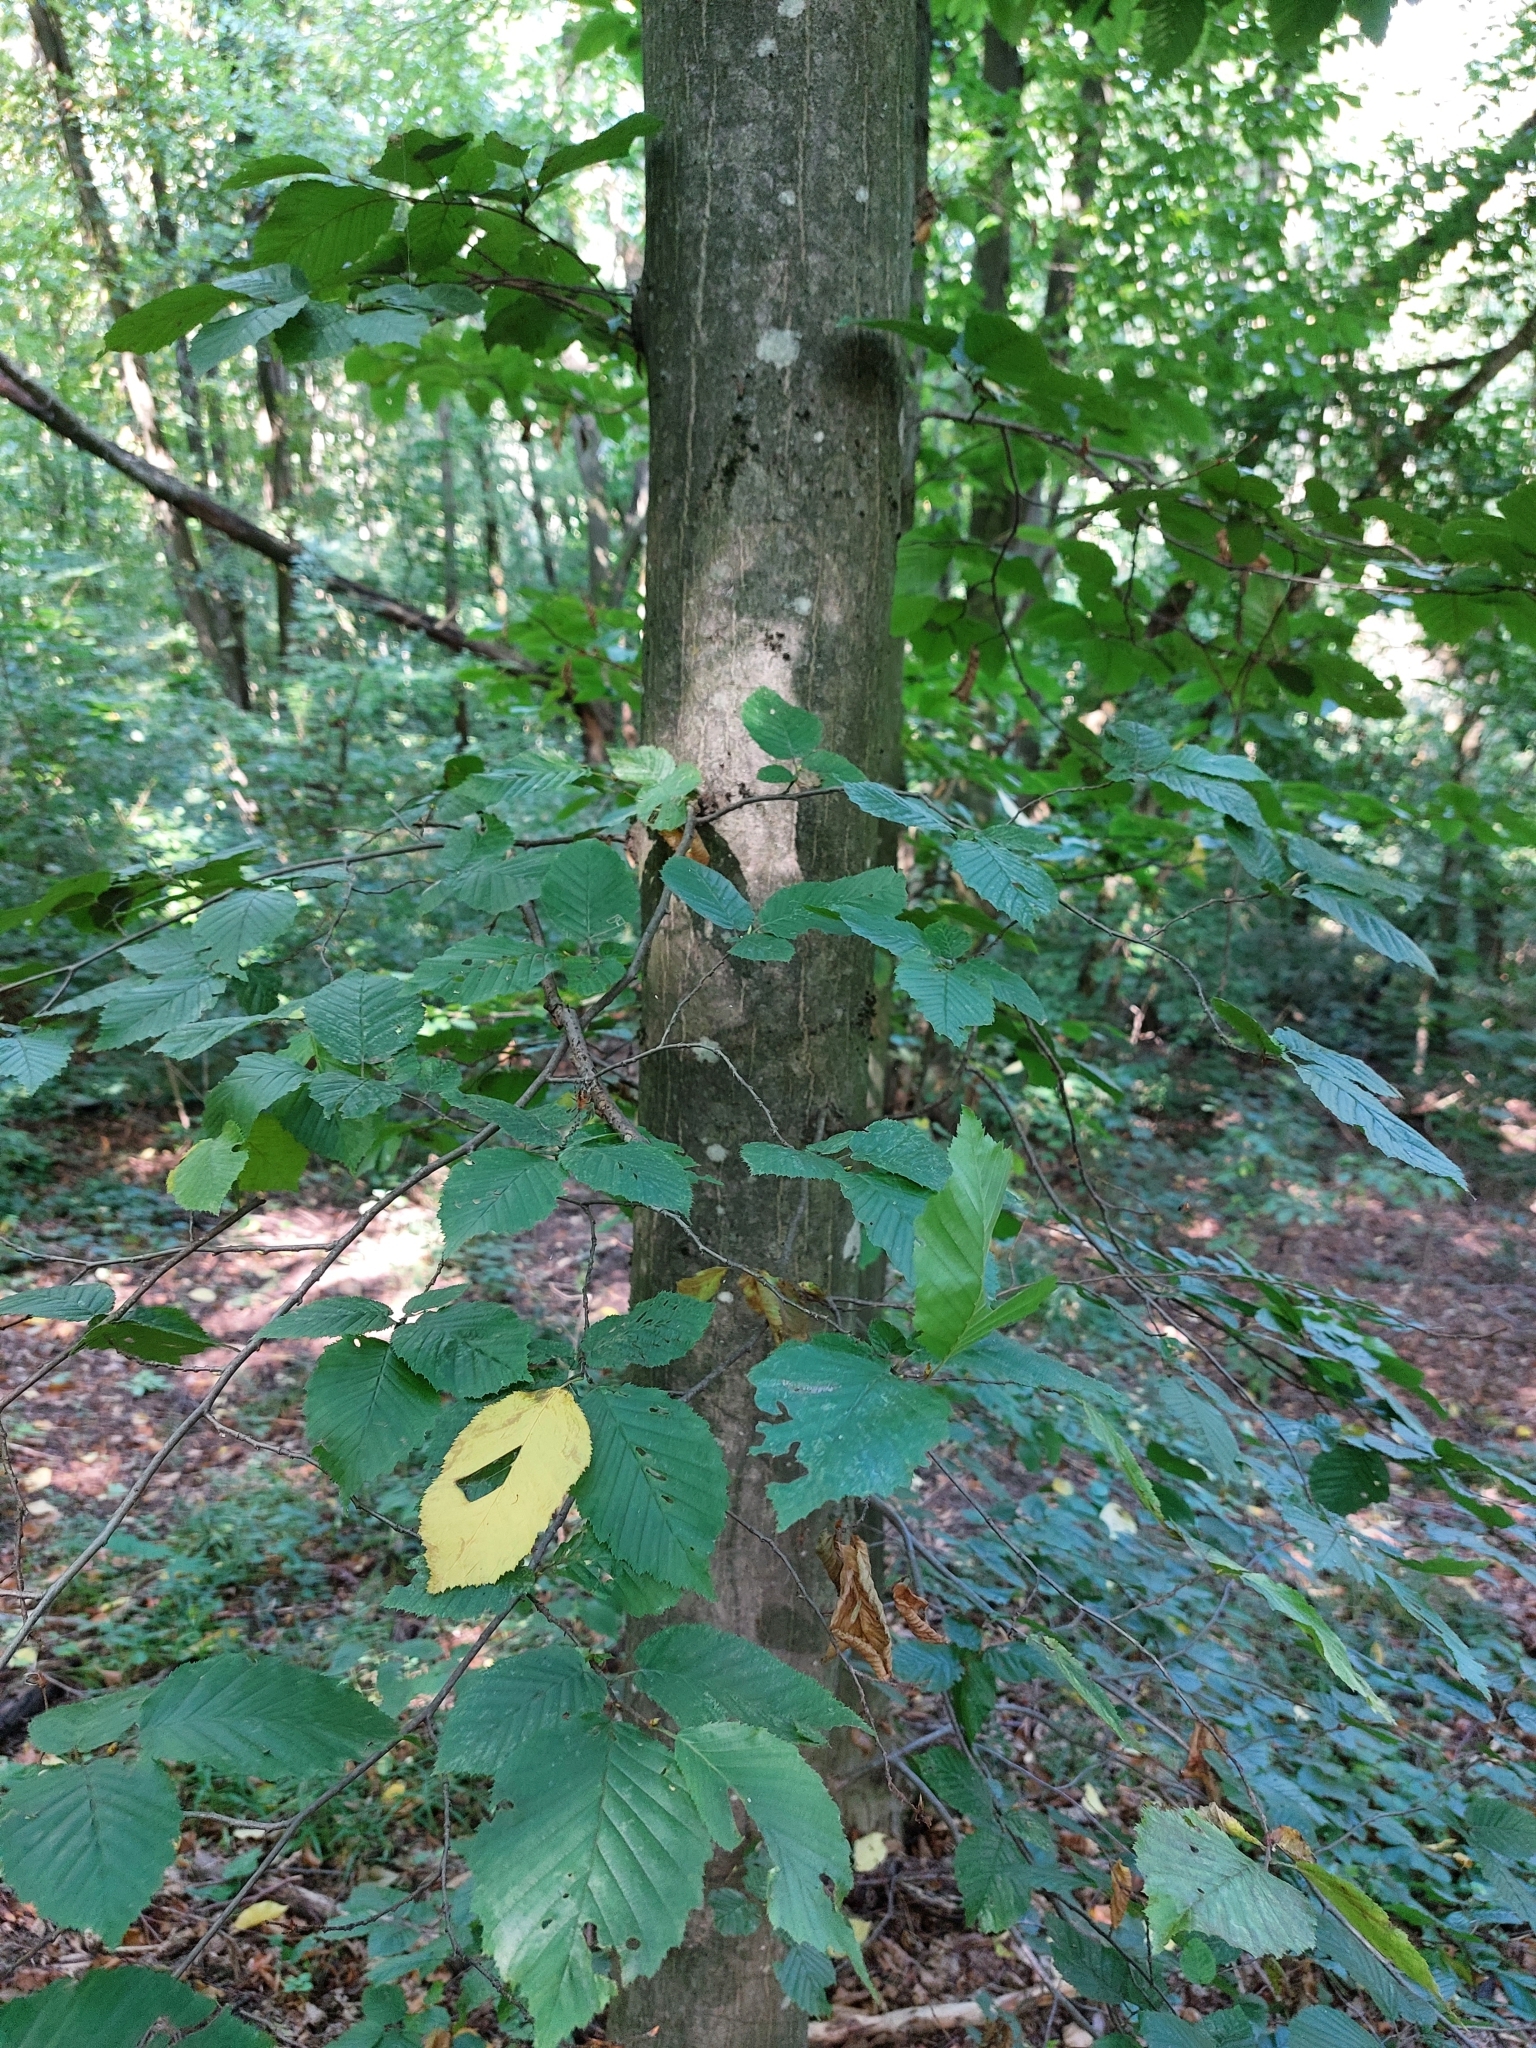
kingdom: Plantae
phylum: Tracheophyta
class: Magnoliopsida
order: Fagales
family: Betulaceae
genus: Carpinus
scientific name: Carpinus betulus
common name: Hornbeam
